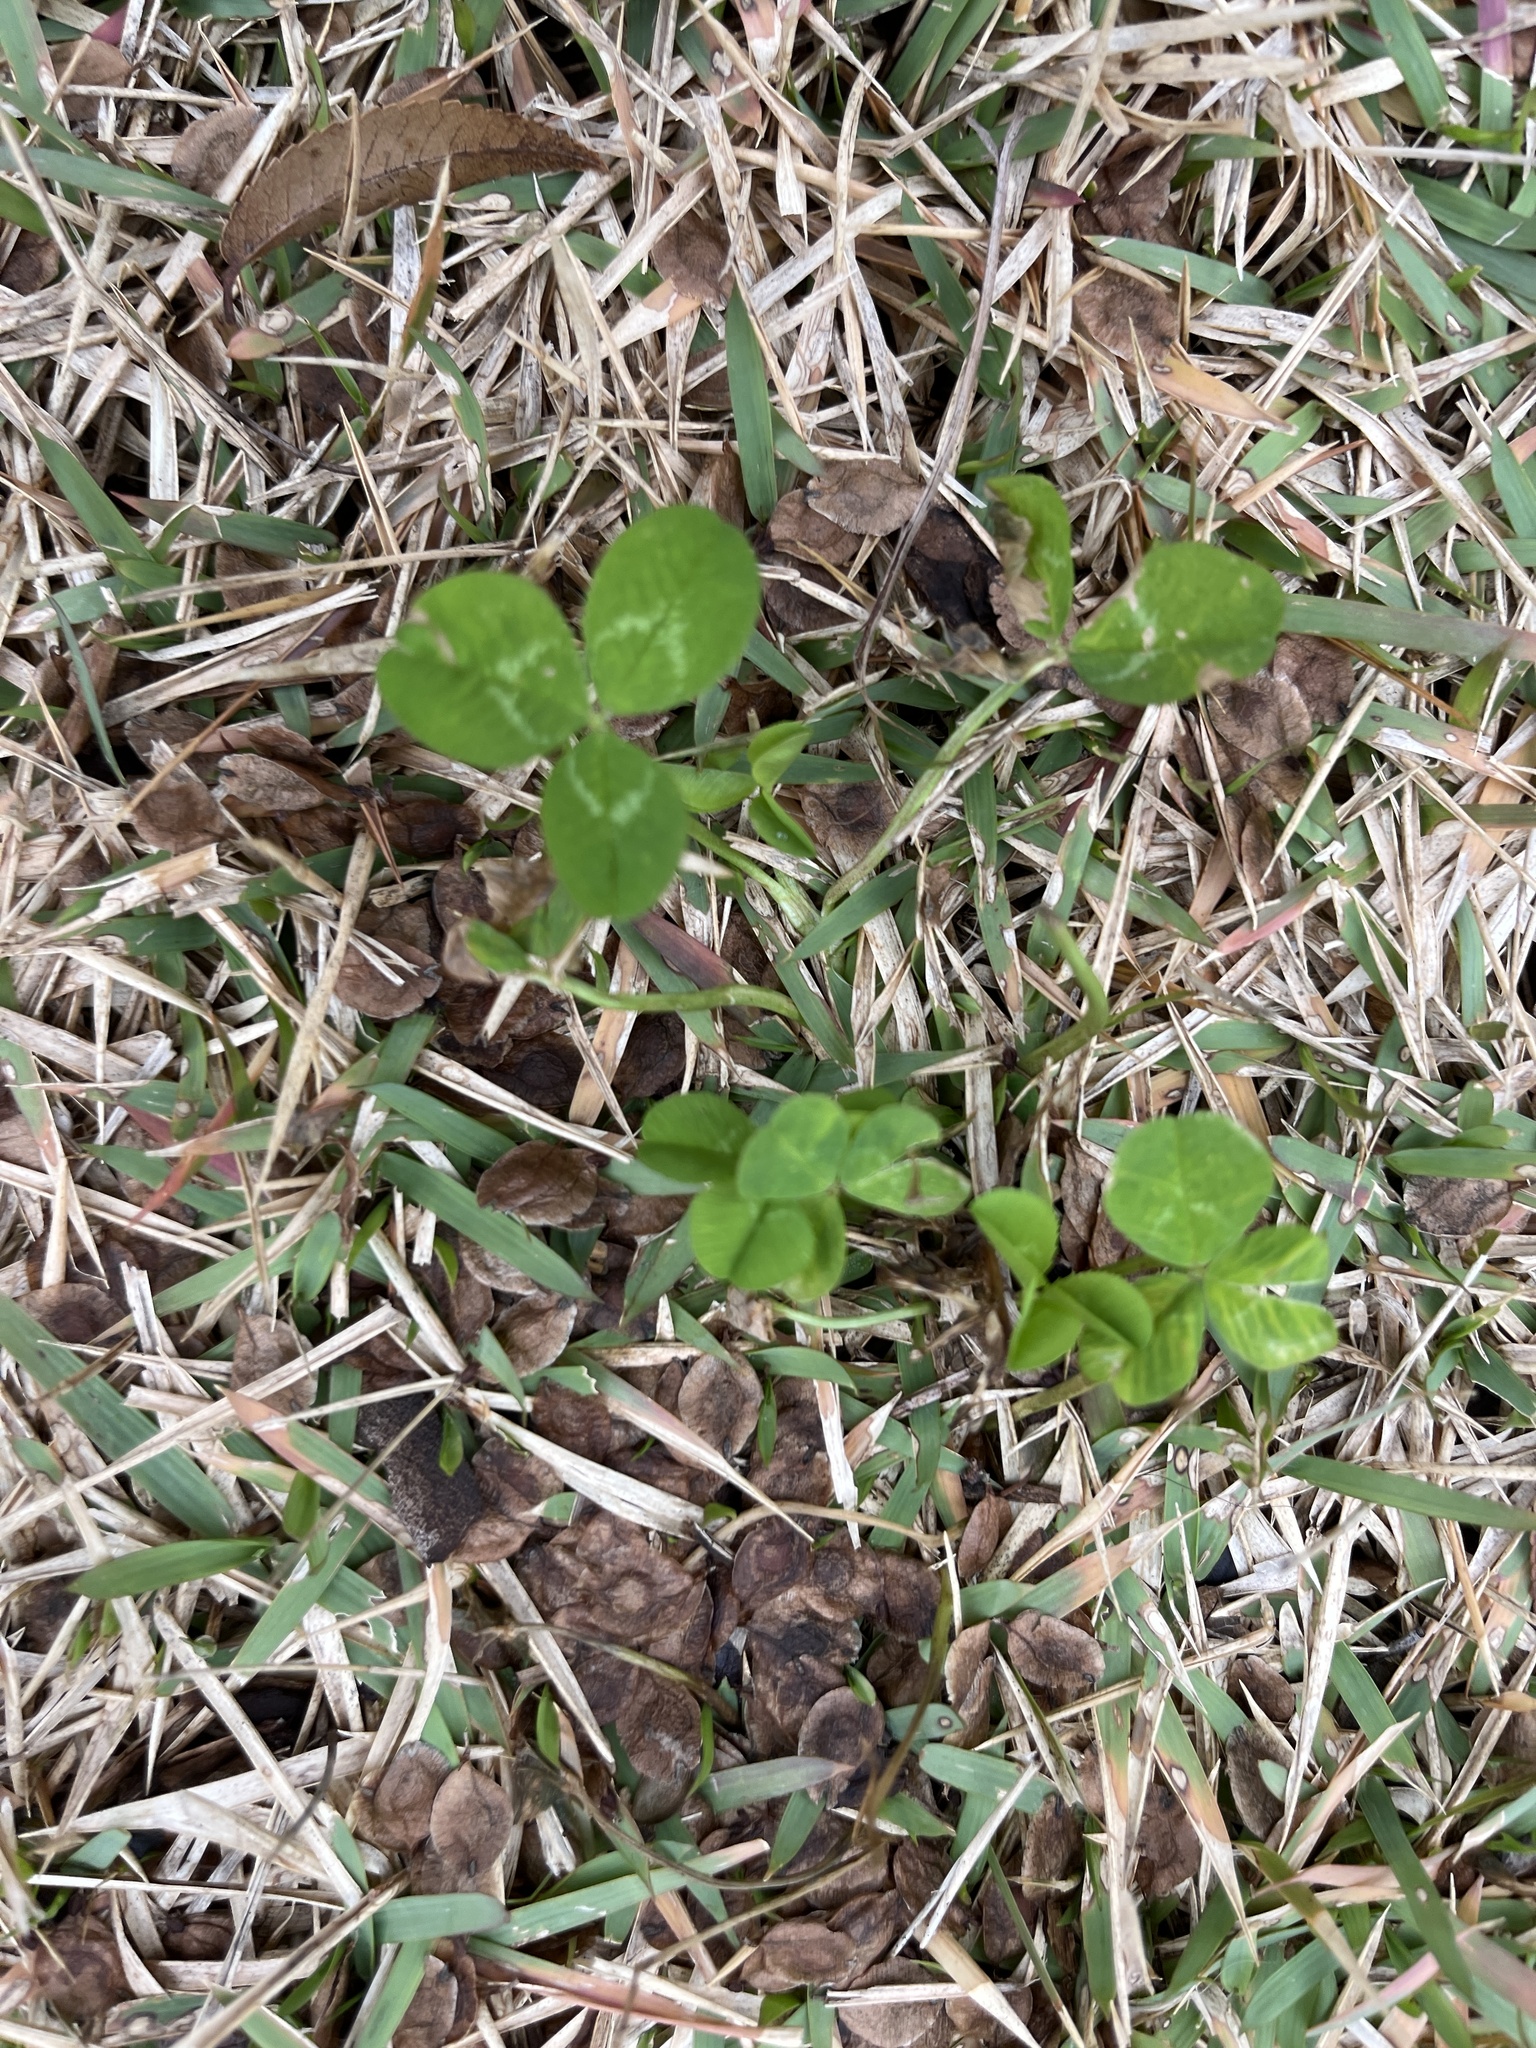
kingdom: Plantae
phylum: Tracheophyta
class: Magnoliopsida
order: Fabales
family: Fabaceae
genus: Trifolium
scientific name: Trifolium repens
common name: White clover
